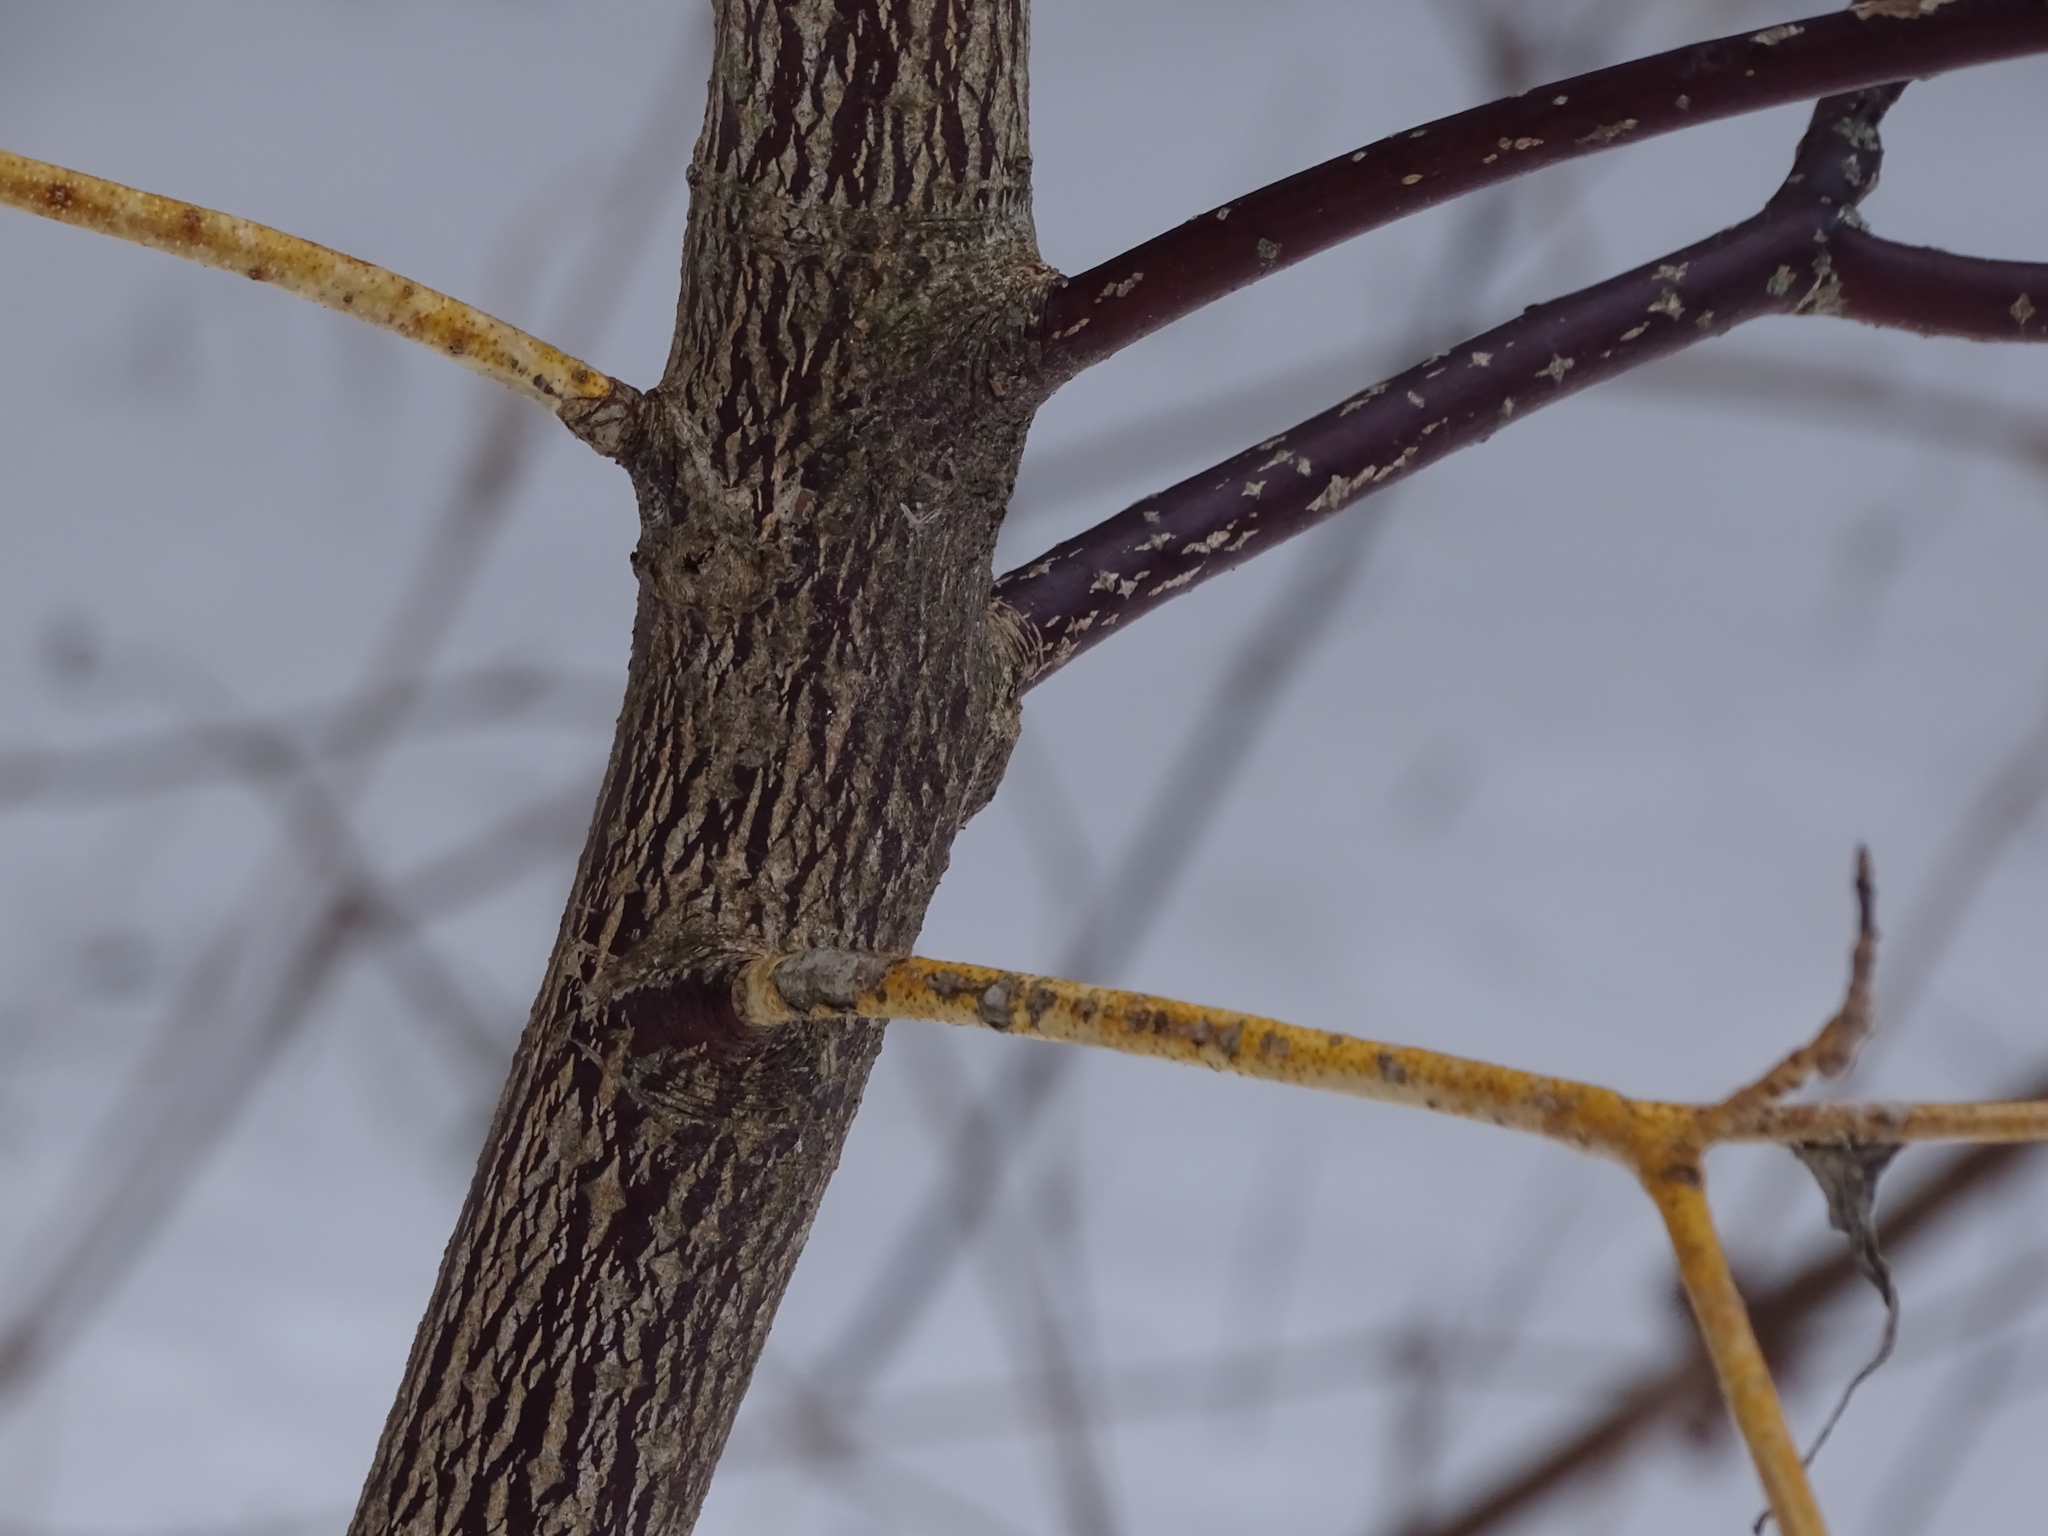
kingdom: Plantae
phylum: Tracheophyta
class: Magnoliopsida
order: Cornales
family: Cornaceae
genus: Cornus
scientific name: Cornus alternifolia
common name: Pagoda dogwood
